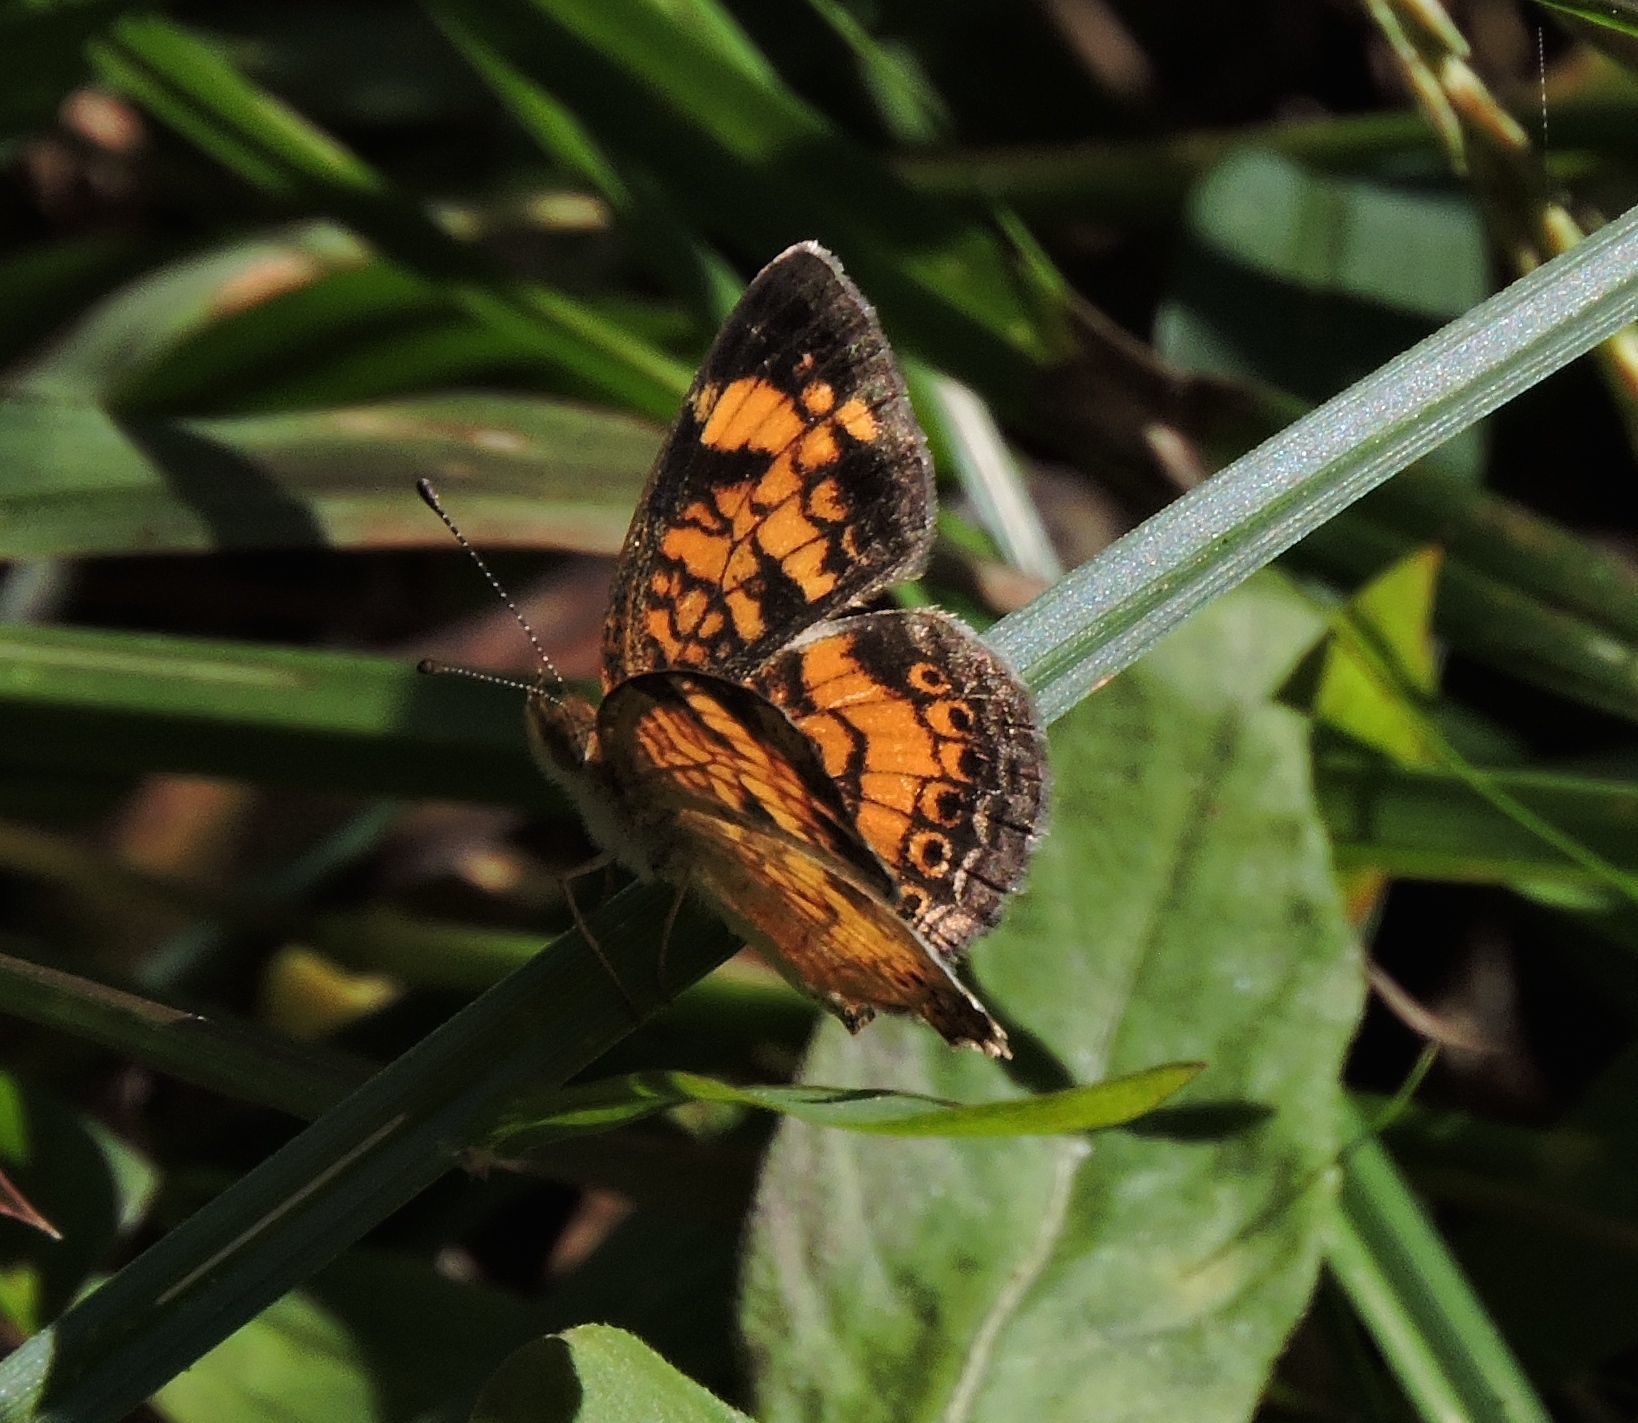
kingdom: Animalia
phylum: Arthropoda
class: Insecta
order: Lepidoptera
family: Nymphalidae
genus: Phyciodes
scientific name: Phyciodes tharos
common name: Pearl crescent
